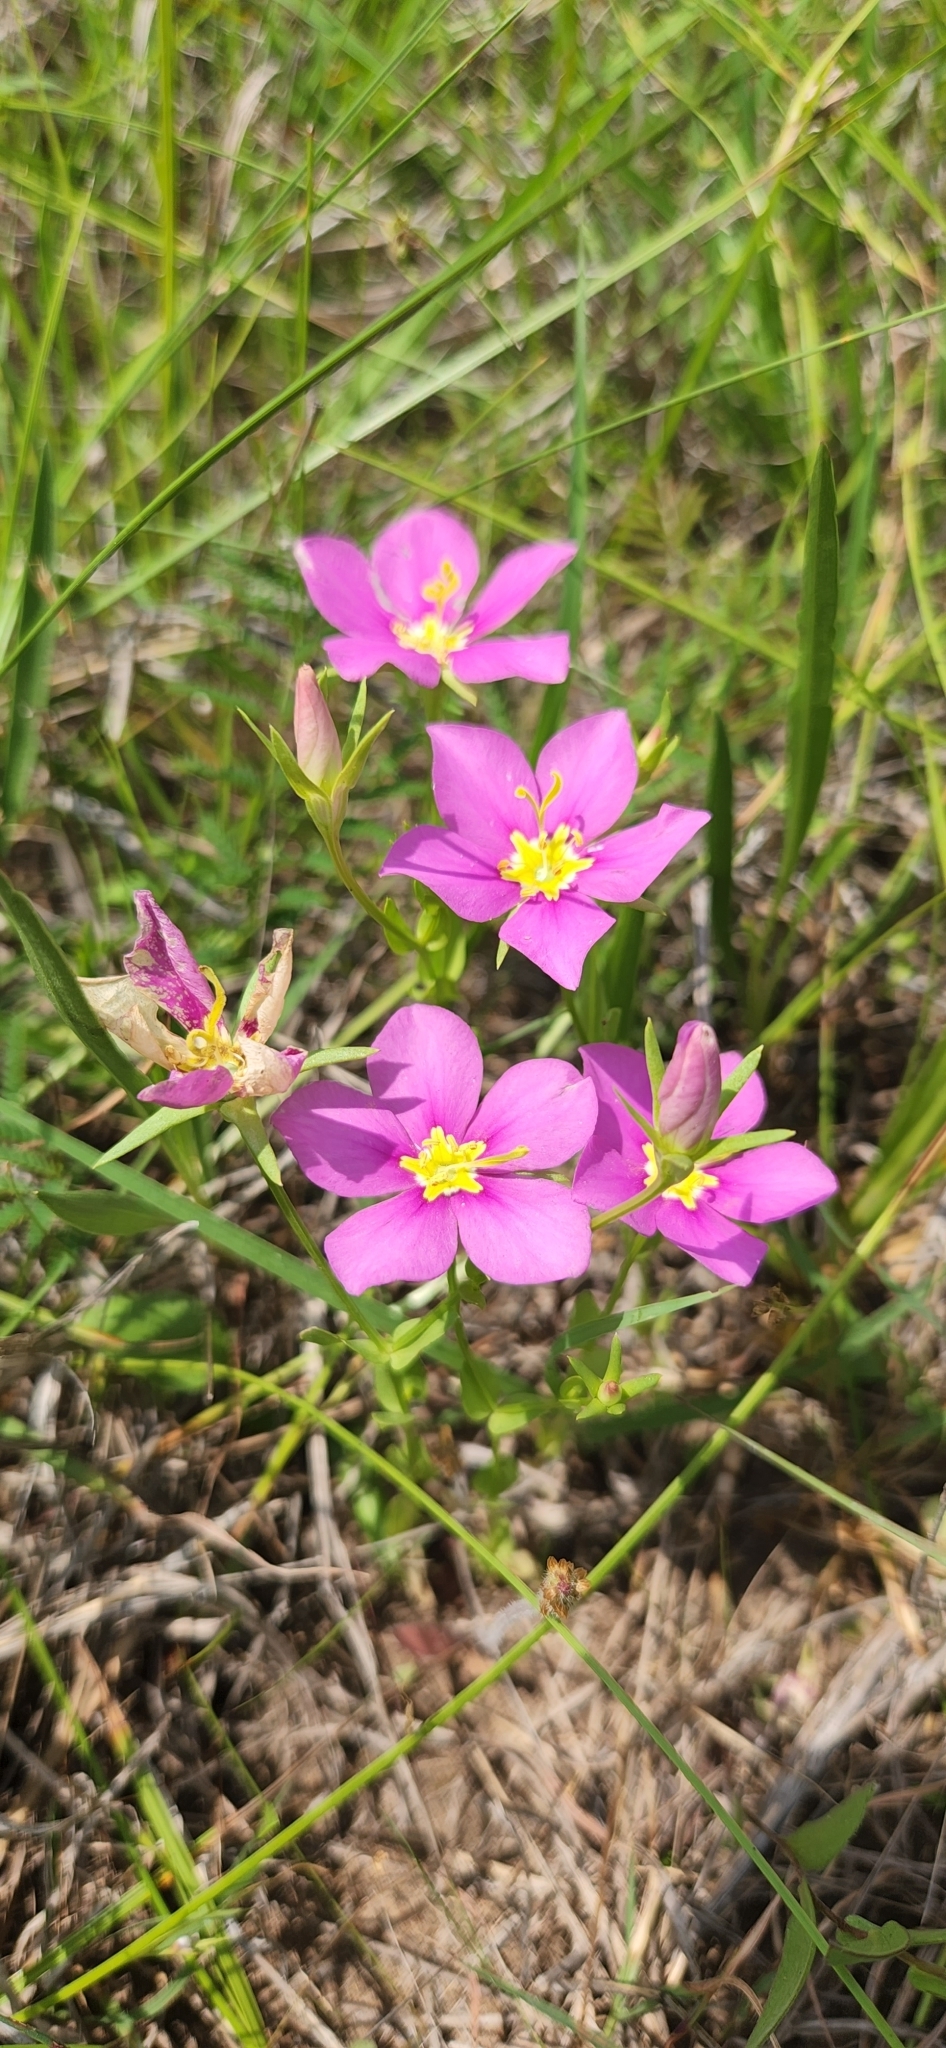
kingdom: Plantae
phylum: Tracheophyta
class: Magnoliopsida
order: Gentianales
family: Gentianaceae
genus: Sabatia
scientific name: Sabatia campestris
